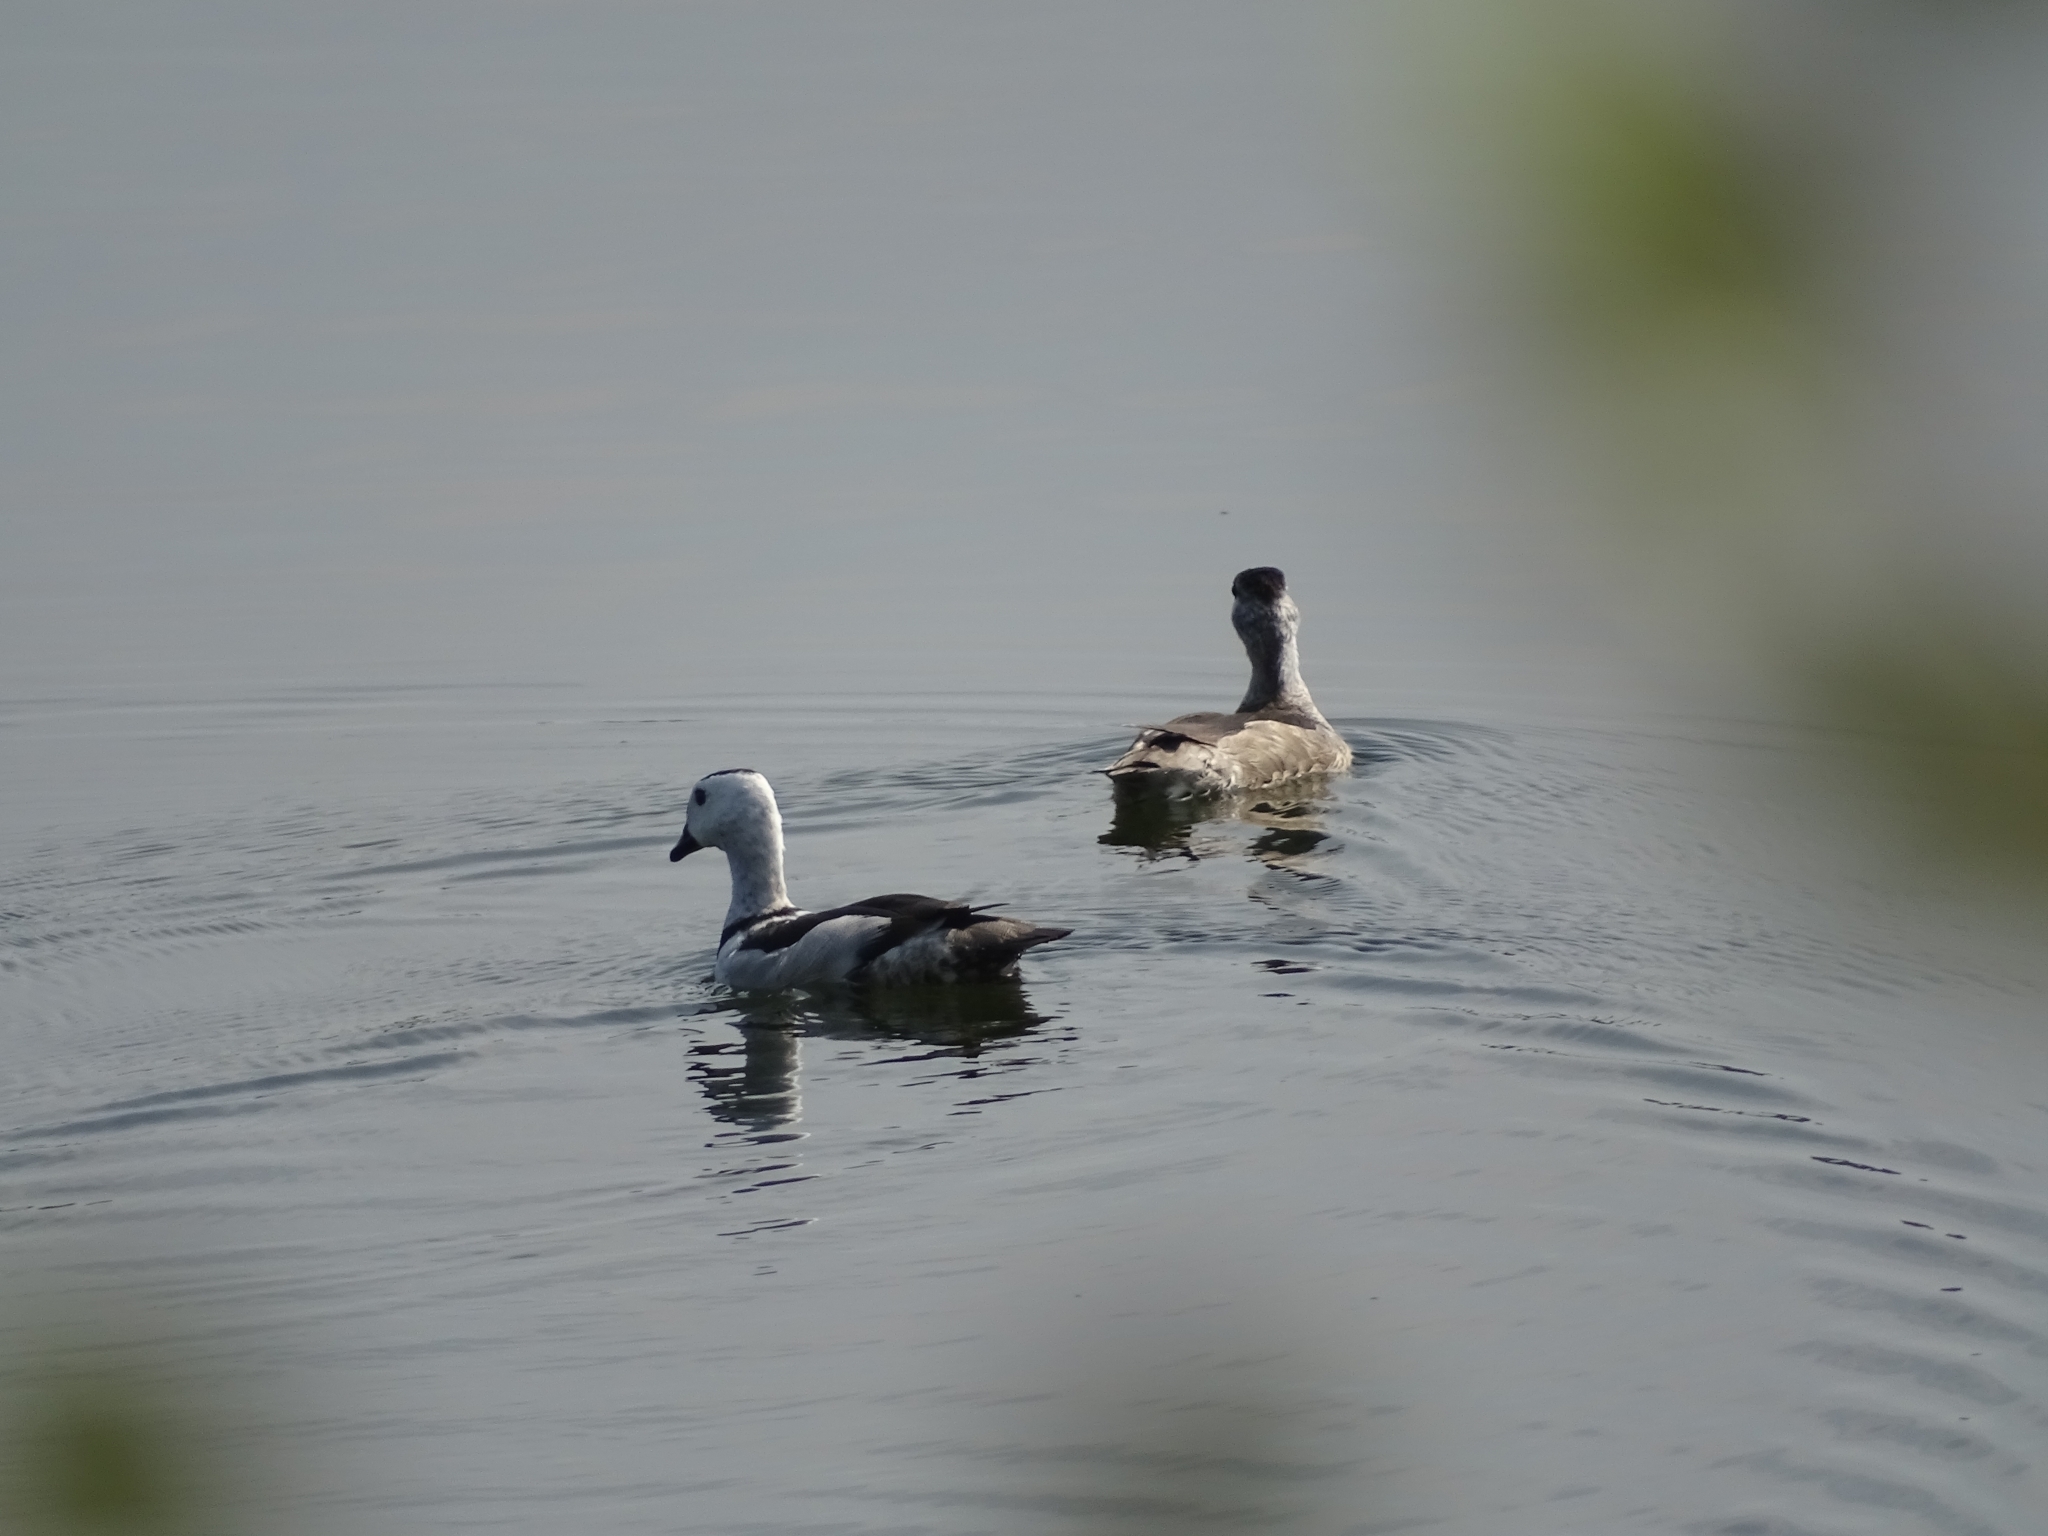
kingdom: Animalia
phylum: Chordata
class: Aves
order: Anseriformes
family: Anatidae
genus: Nettapus
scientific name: Nettapus coromandelianus
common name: Cotton pygmy-goose
